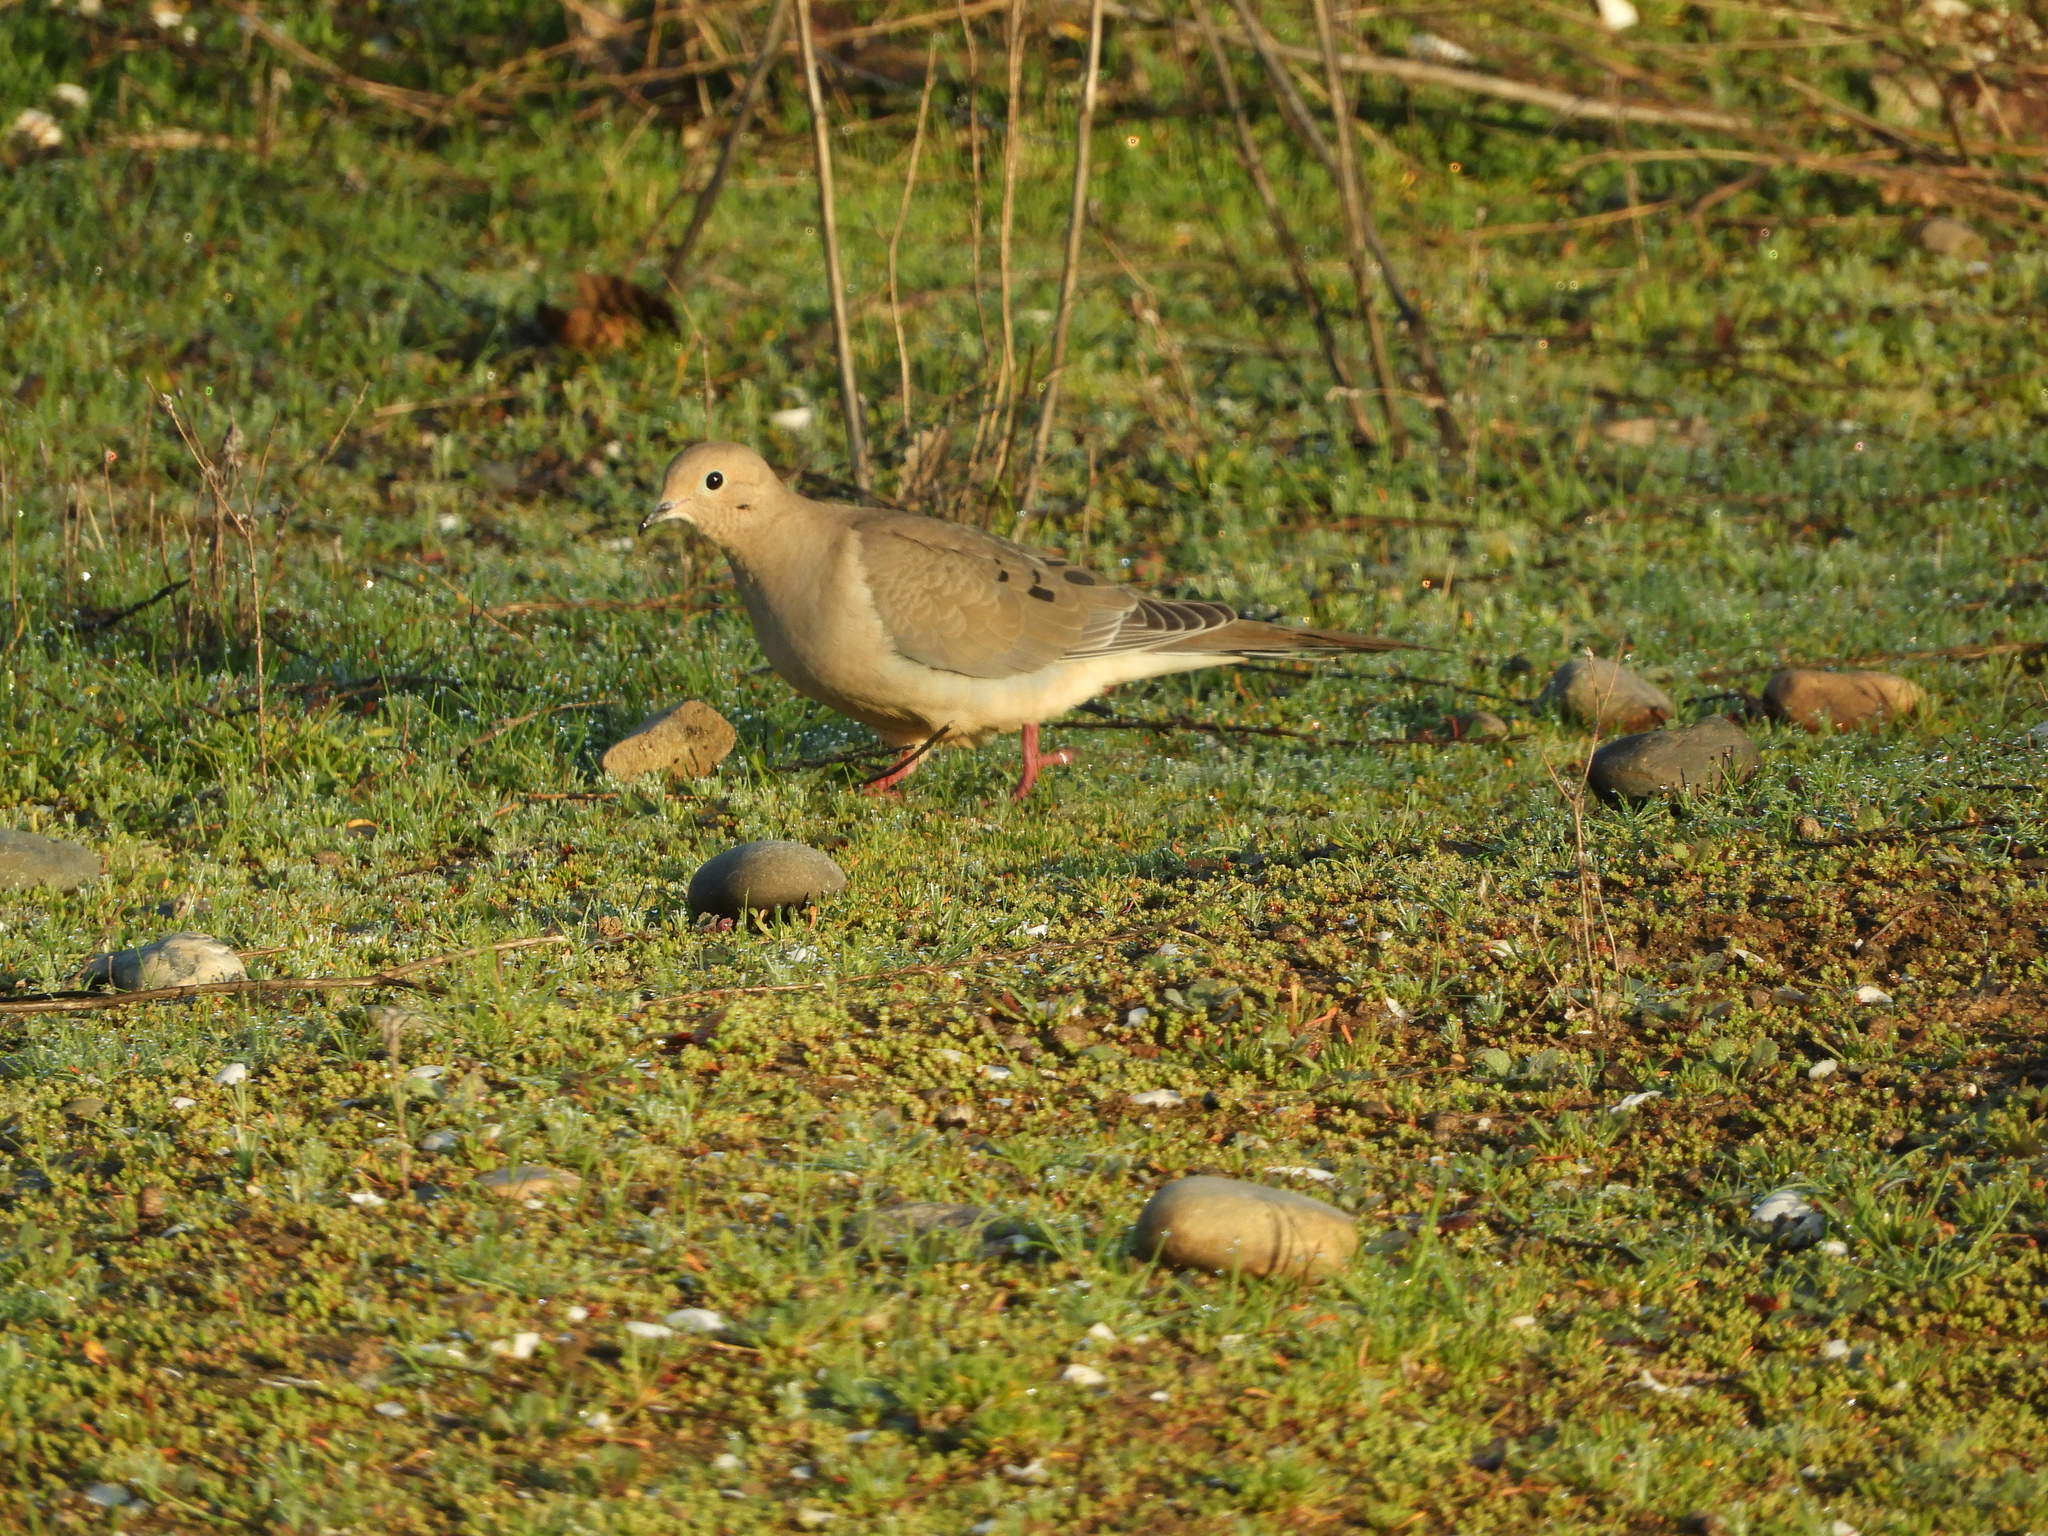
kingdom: Animalia
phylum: Chordata
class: Aves
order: Columbiformes
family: Columbidae
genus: Zenaida
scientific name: Zenaida macroura
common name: Mourning dove
